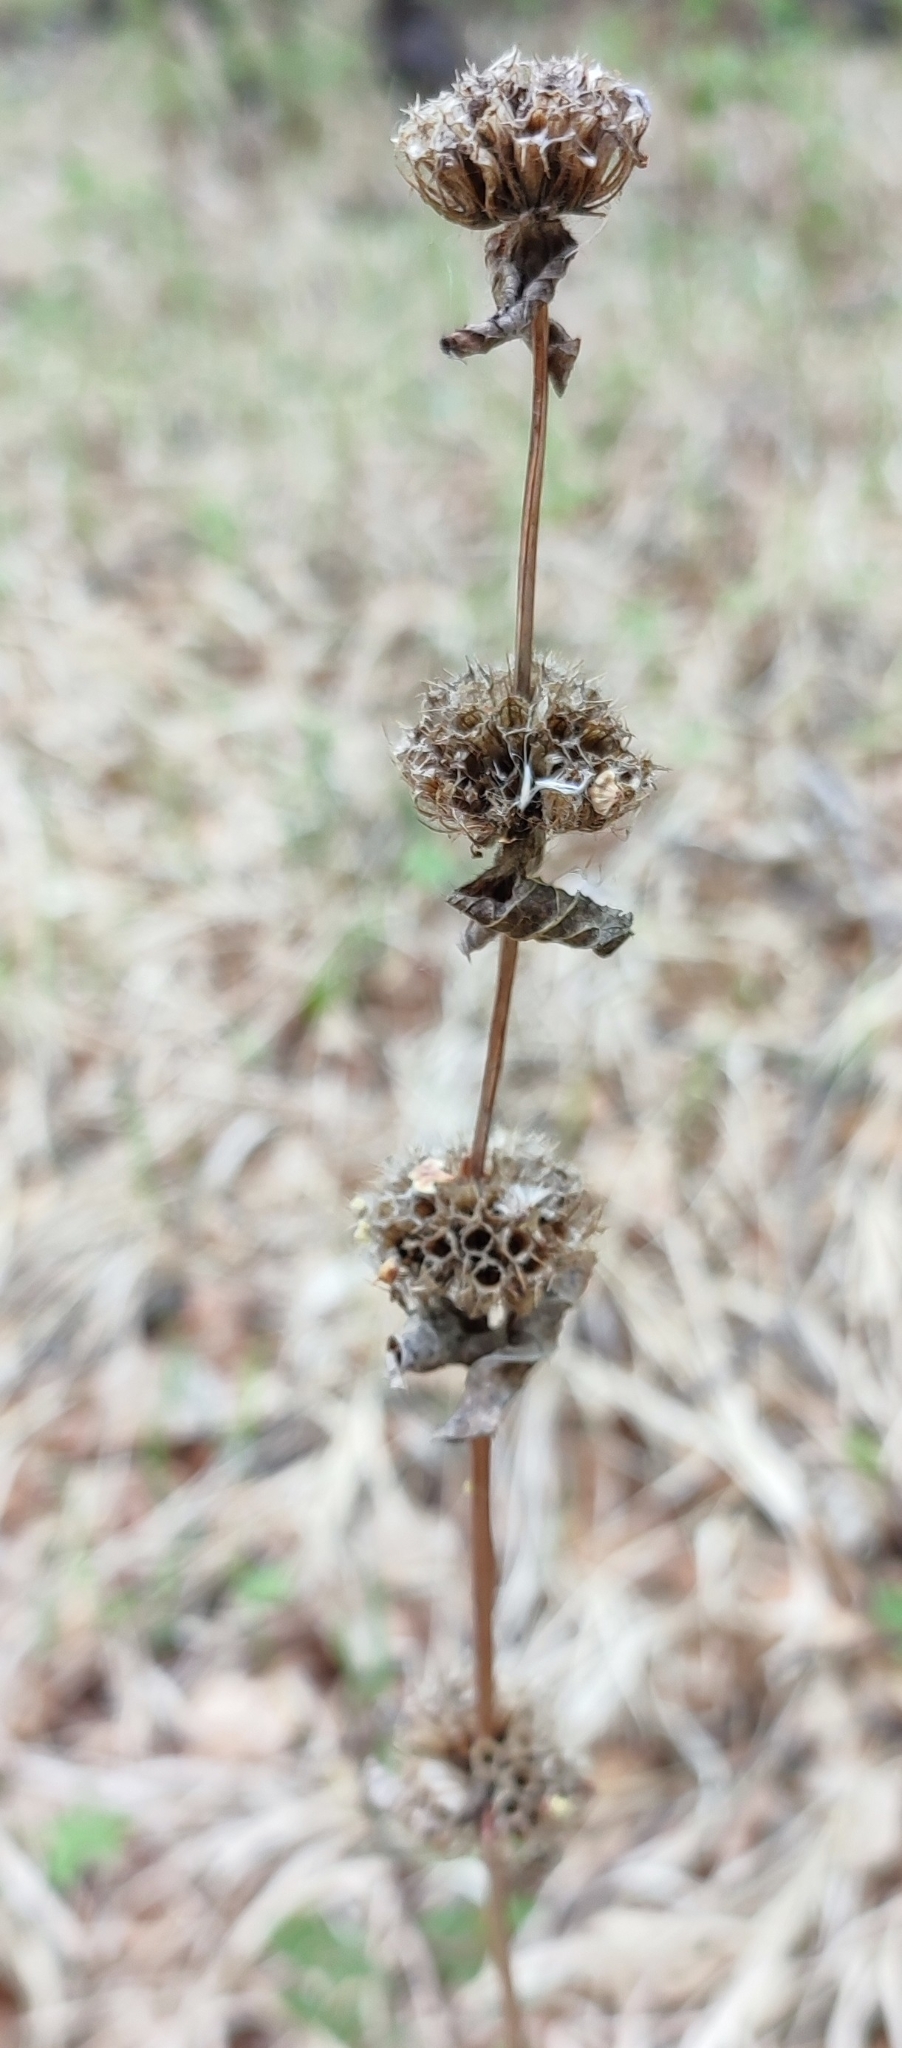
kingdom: Plantae
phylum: Tracheophyta
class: Magnoliopsida
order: Lamiales
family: Lamiaceae
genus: Phlomoides
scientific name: Phlomoides tuberosa
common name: Tuberous jerusalem sage
